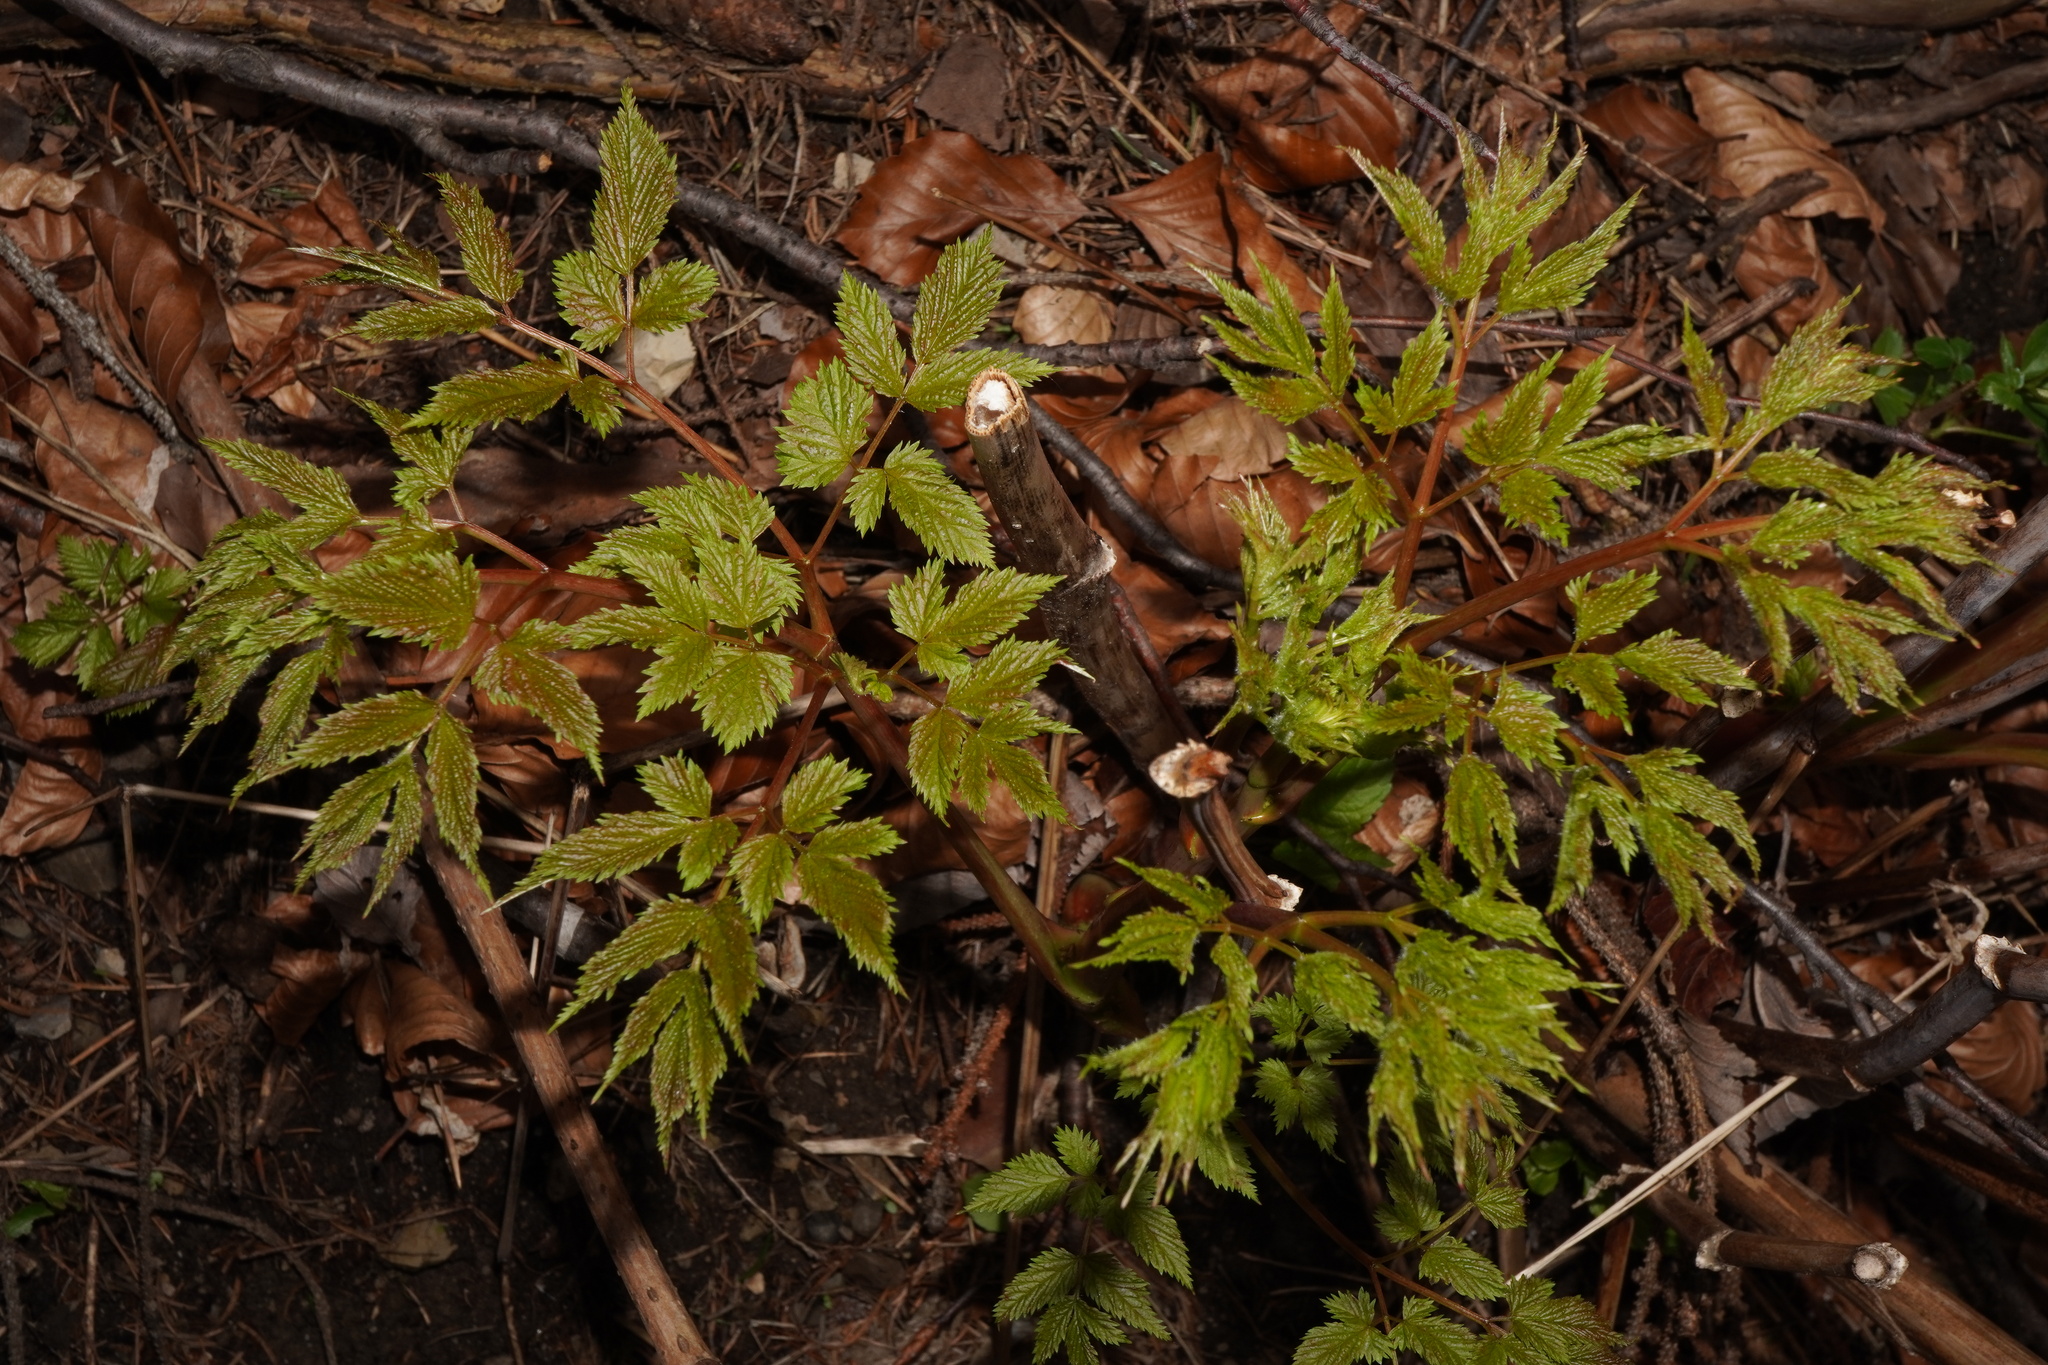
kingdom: Plantae
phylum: Tracheophyta
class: Magnoliopsida
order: Rosales
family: Rosaceae
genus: Aruncus
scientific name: Aruncus dioicus
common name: Buck's-beard
